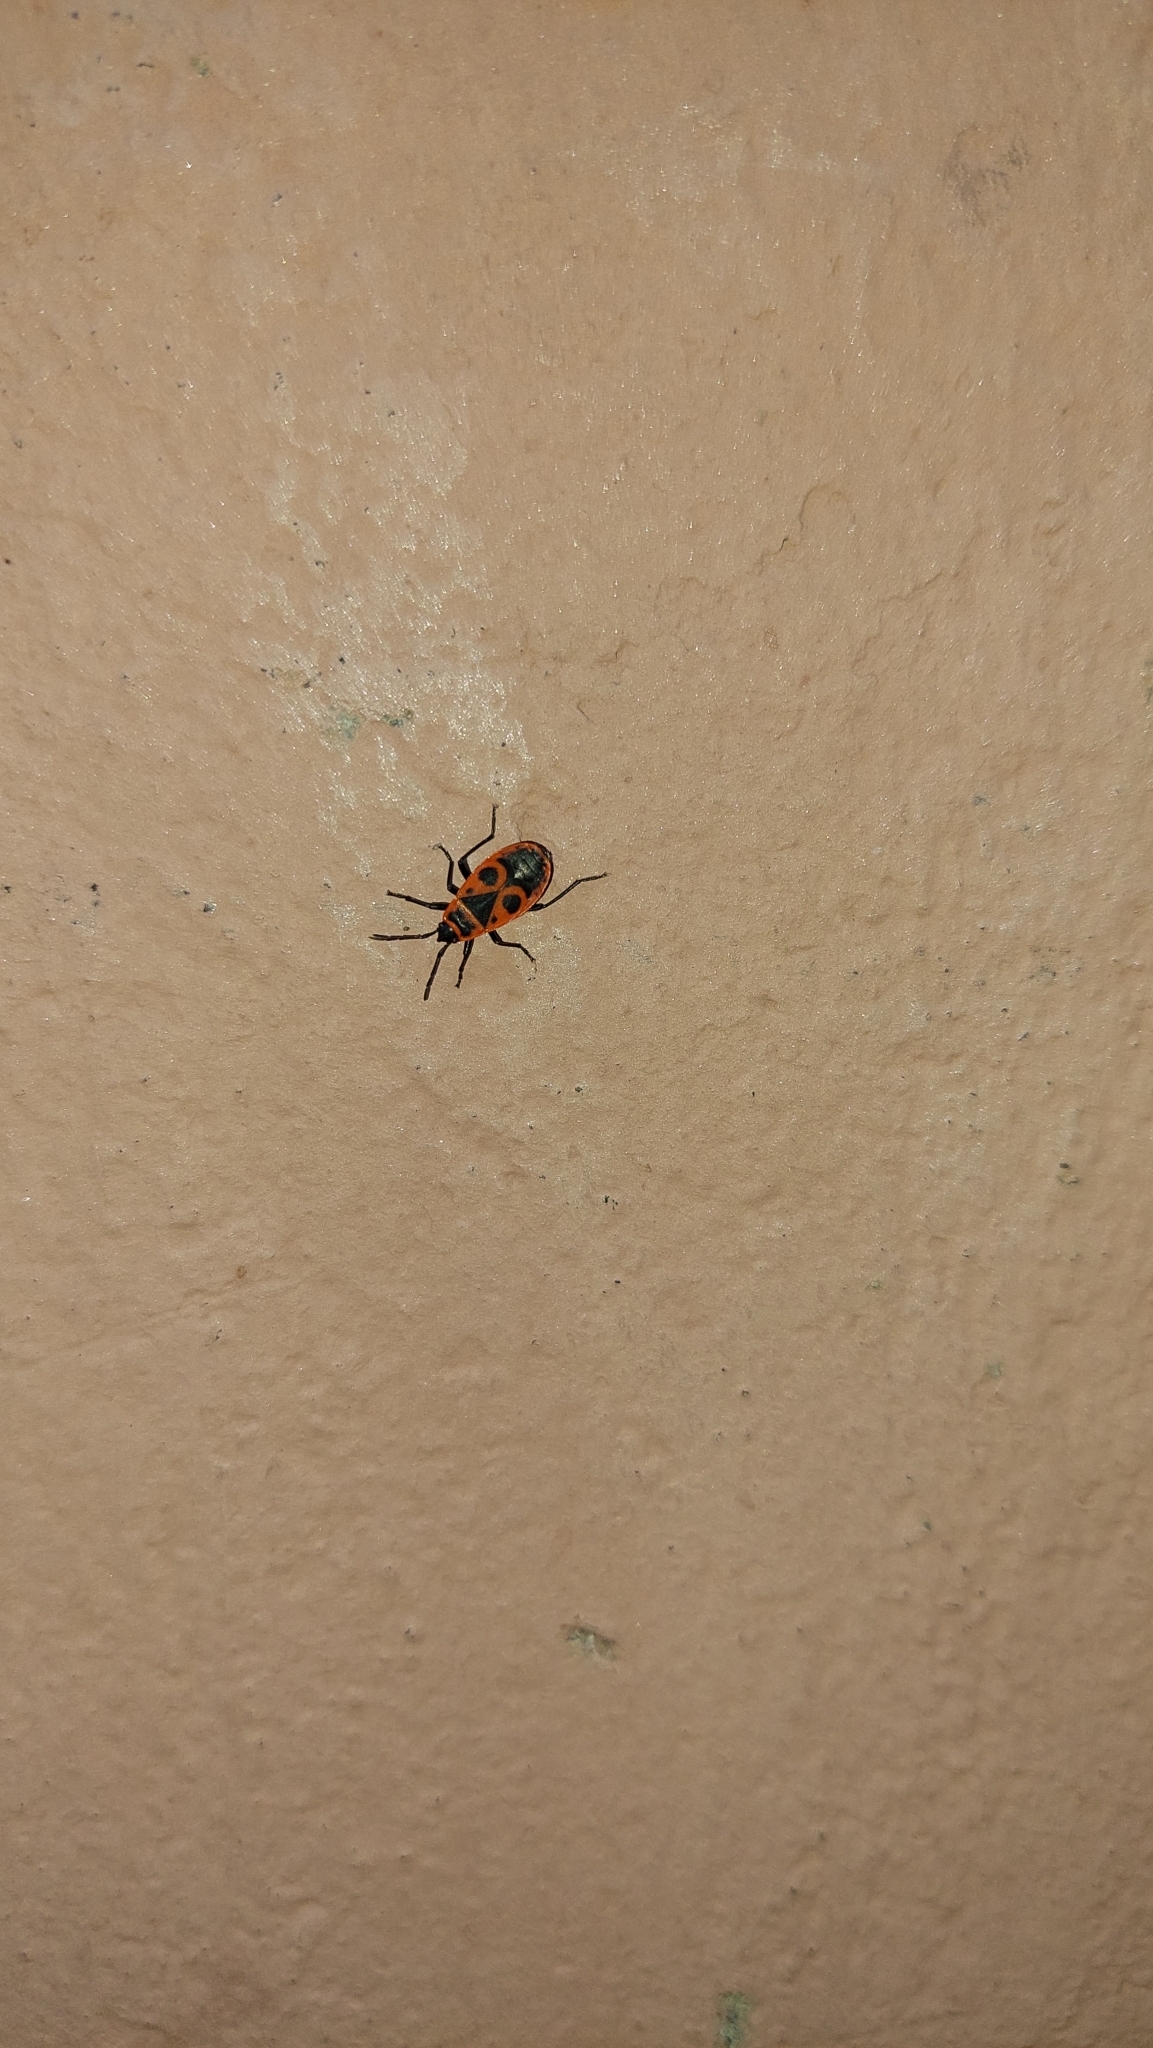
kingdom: Animalia
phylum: Arthropoda
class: Insecta
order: Hemiptera
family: Pyrrhocoridae
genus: Pyrrhocoris
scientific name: Pyrrhocoris apterus
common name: Firebug
